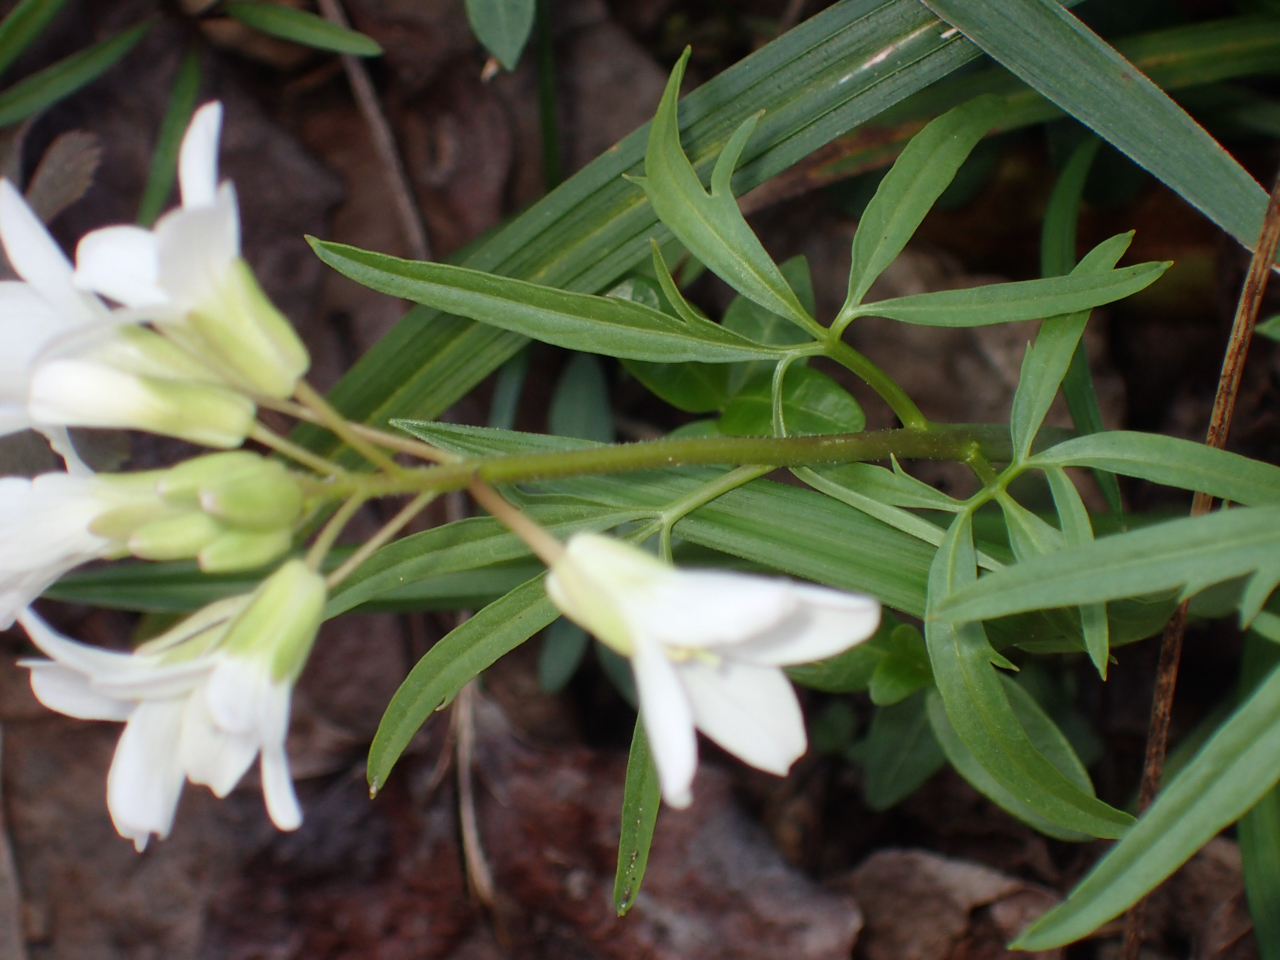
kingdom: Plantae
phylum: Tracheophyta
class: Magnoliopsida
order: Brassicales
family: Brassicaceae
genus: Cardamine
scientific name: Cardamine concatenata
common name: Cut-leaf toothcup
